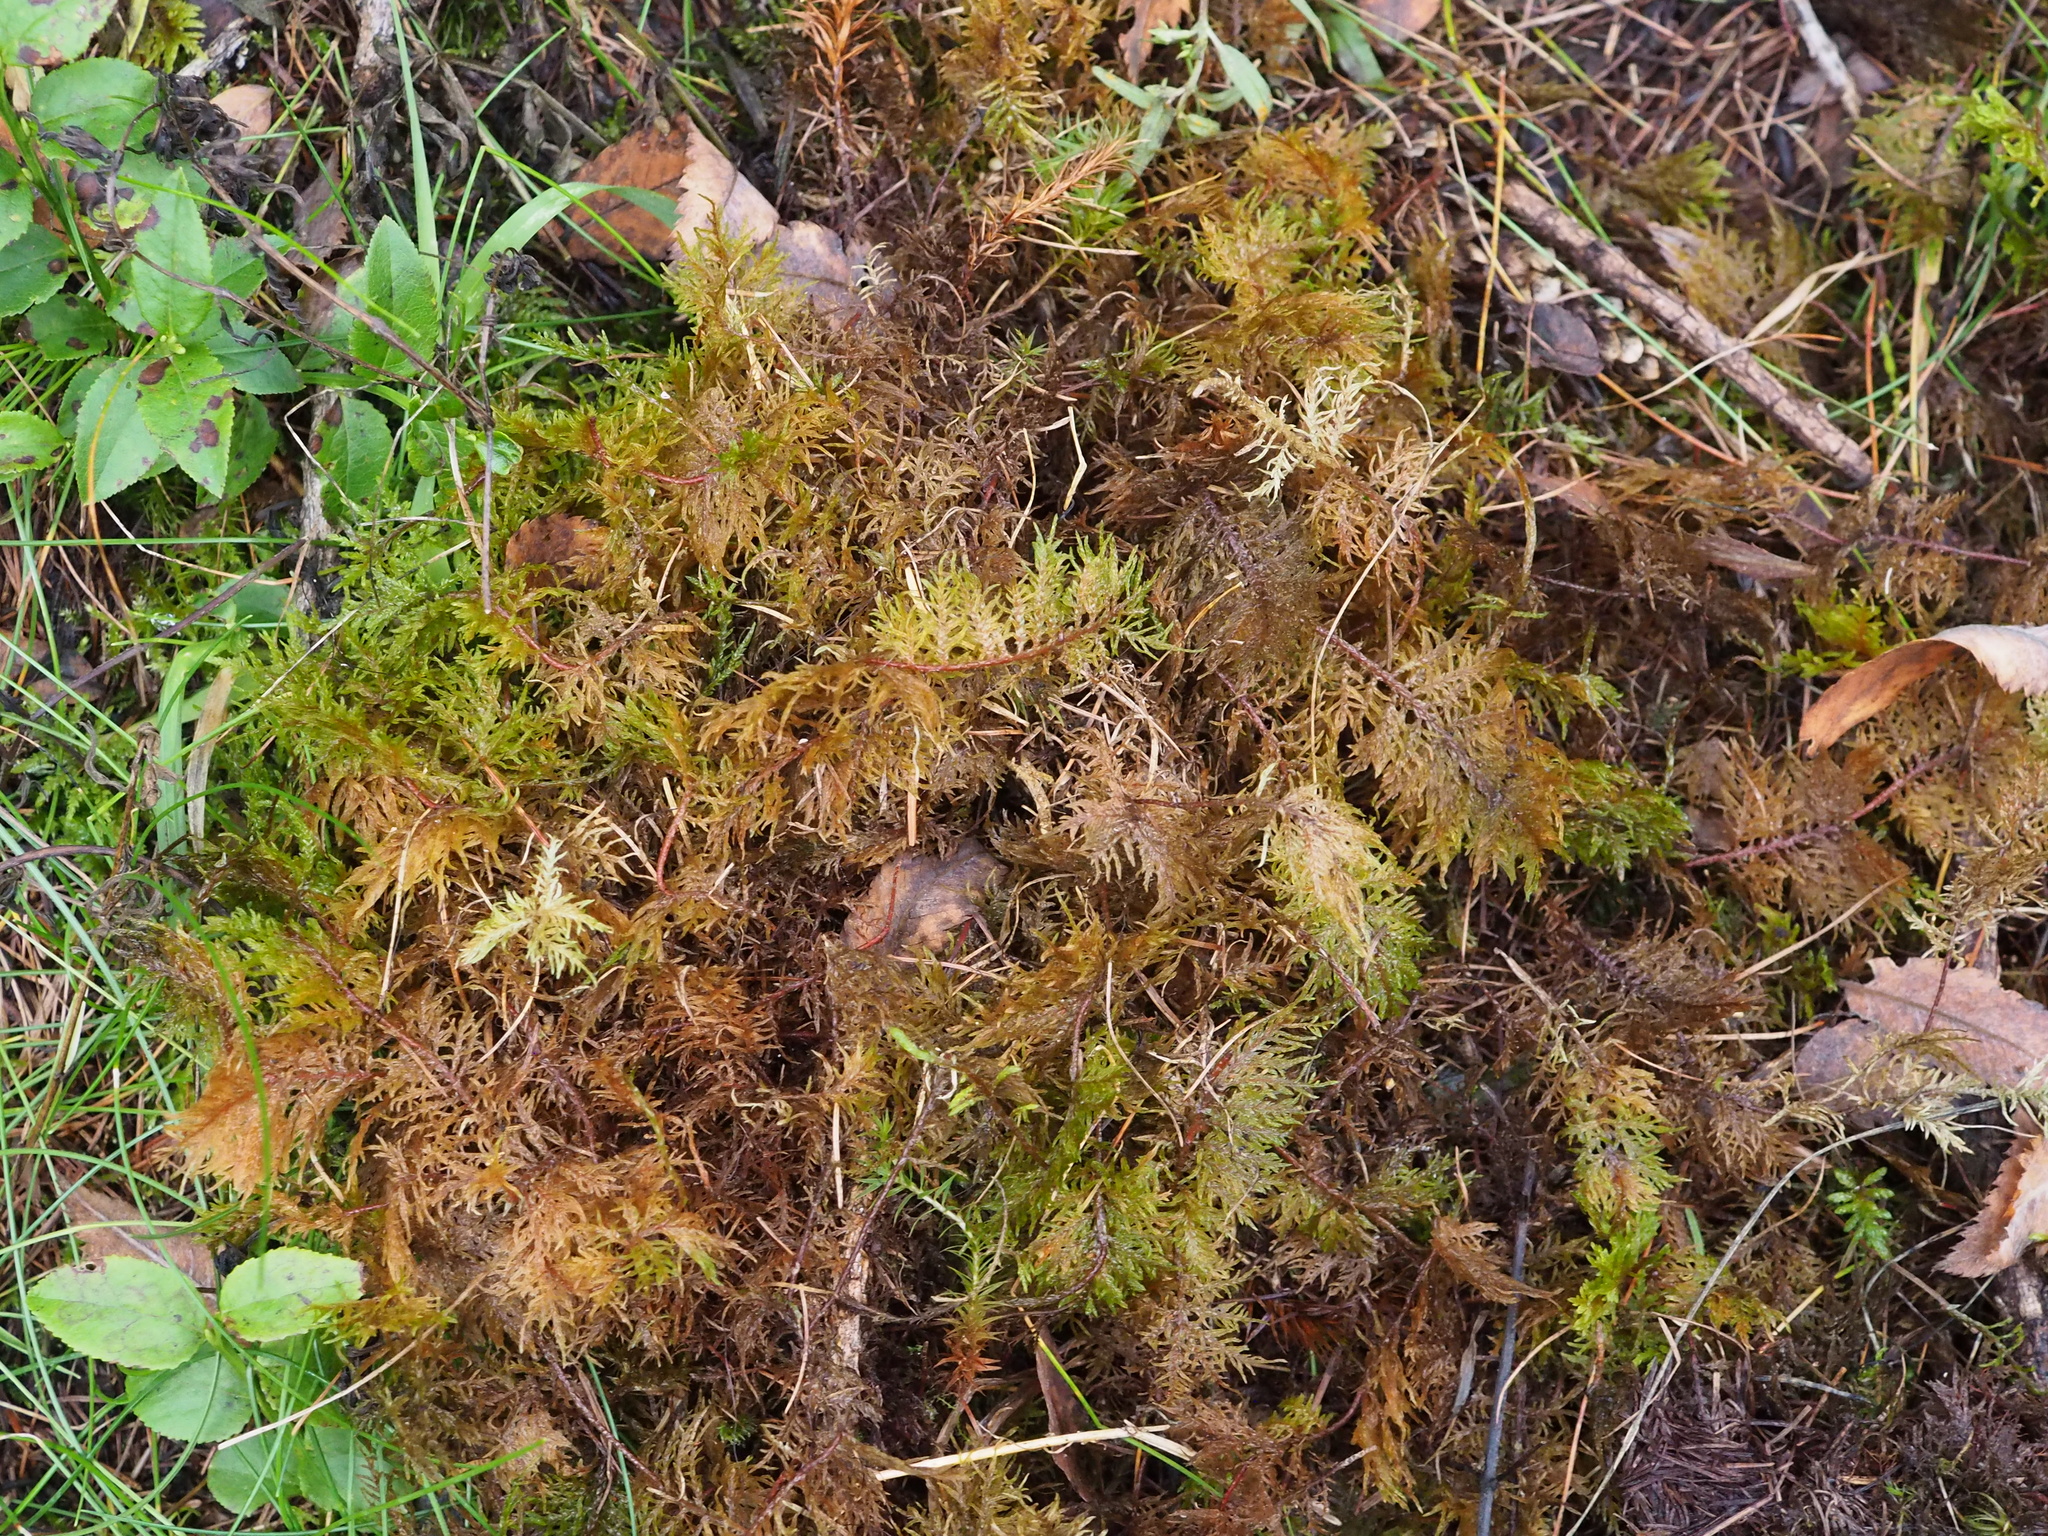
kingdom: Plantae
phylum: Bryophyta
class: Bryopsida
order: Hypnales
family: Hylocomiaceae
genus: Hylocomium
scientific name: Hylocomium splendens
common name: Stairstep moss
